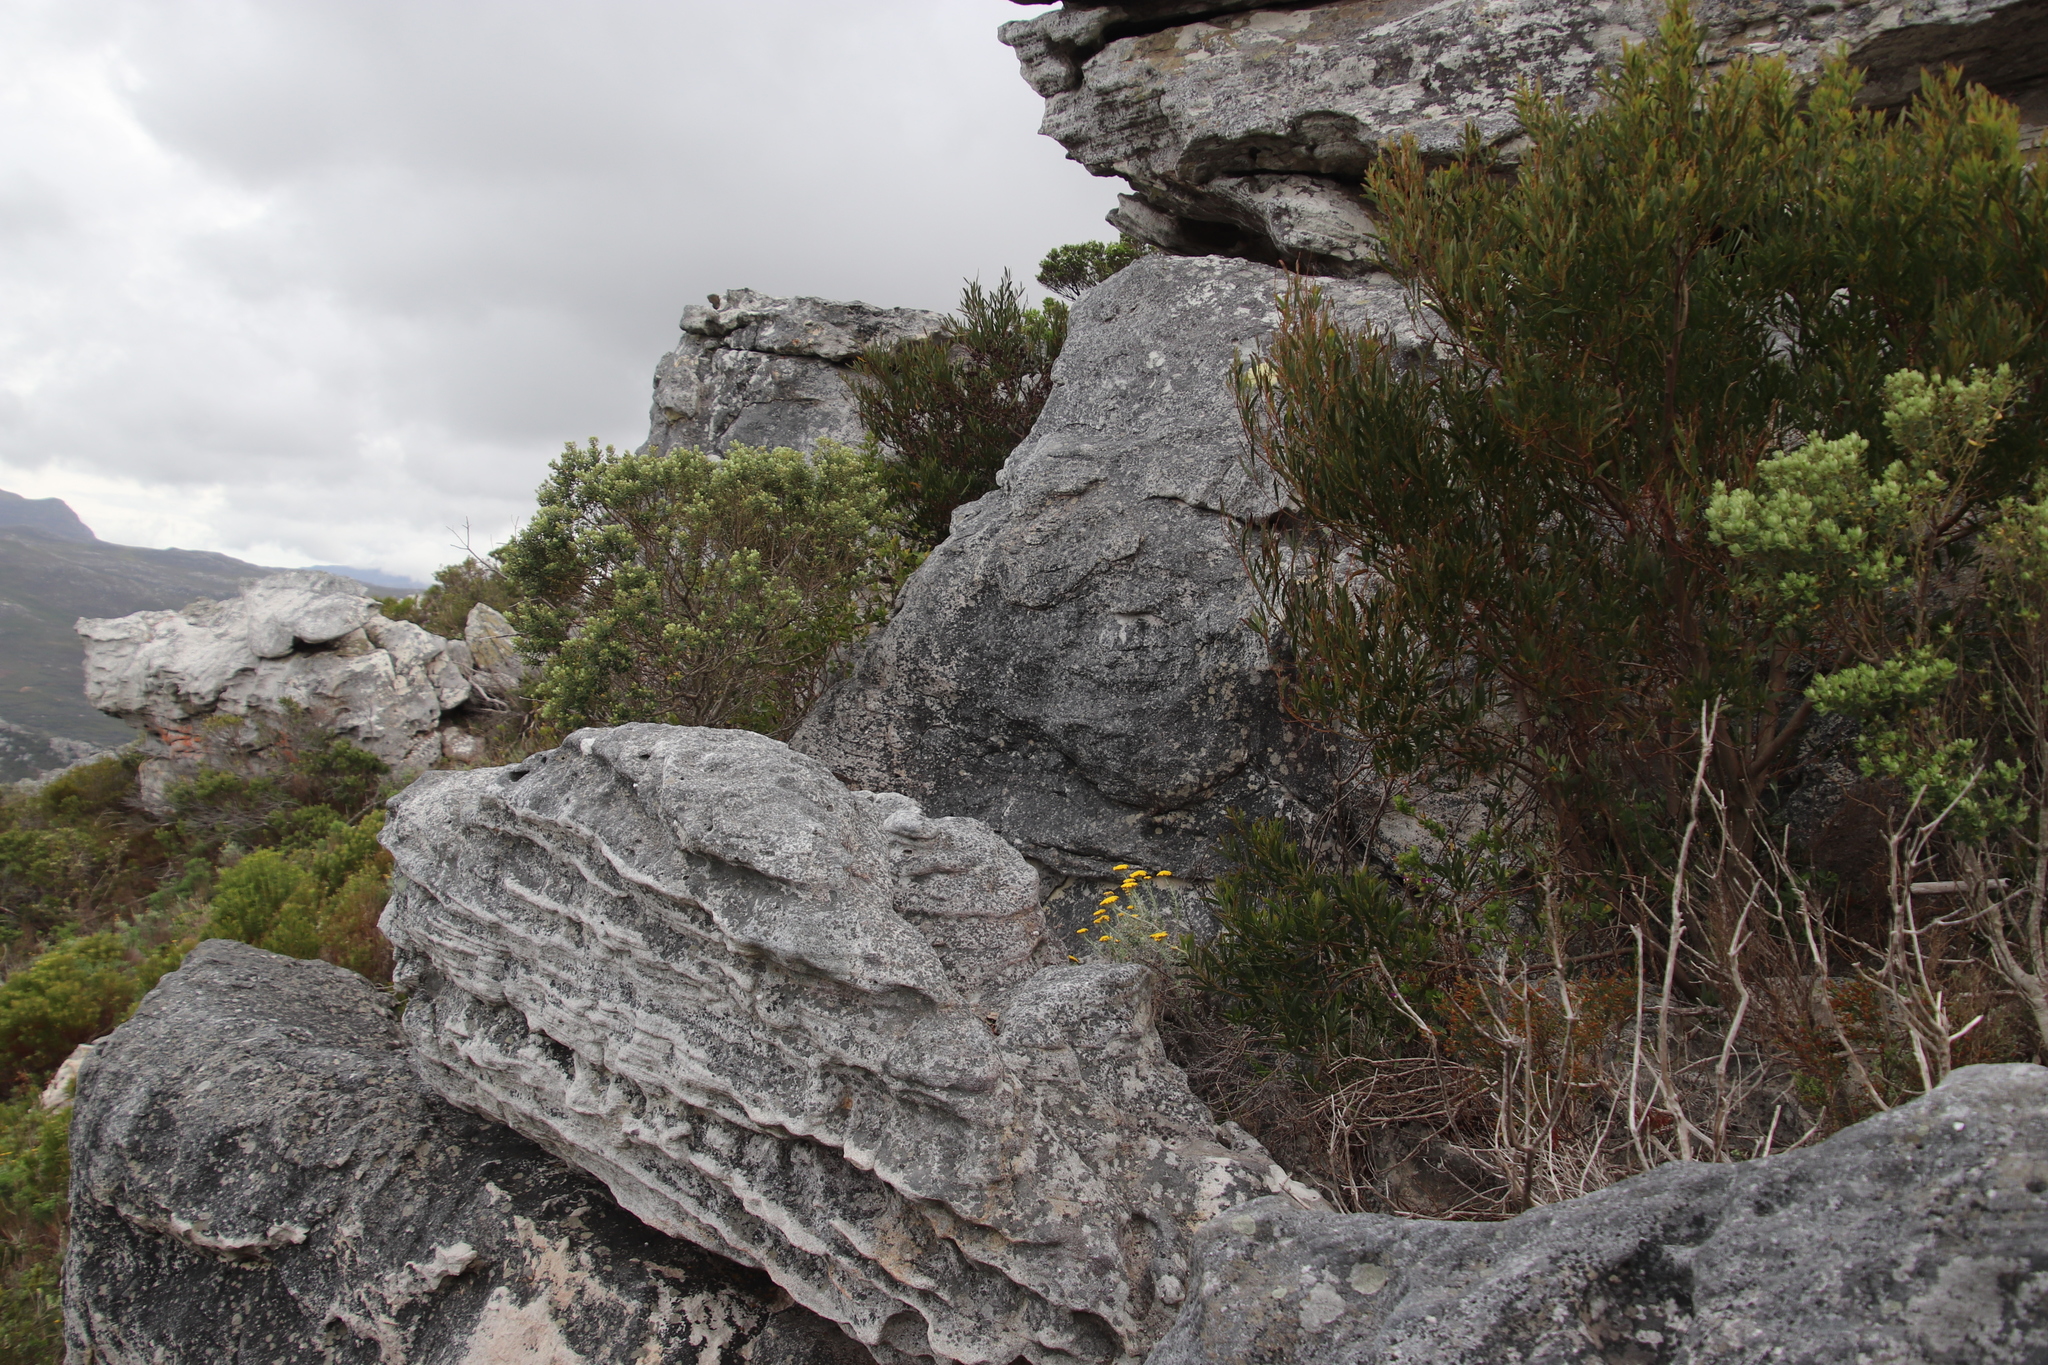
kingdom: Plantae
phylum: Tracheophyta
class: Magnoliopsida
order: Fabales
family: Fabaceae
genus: Acacia
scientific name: Acacia cyclops
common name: Coastal wattle
